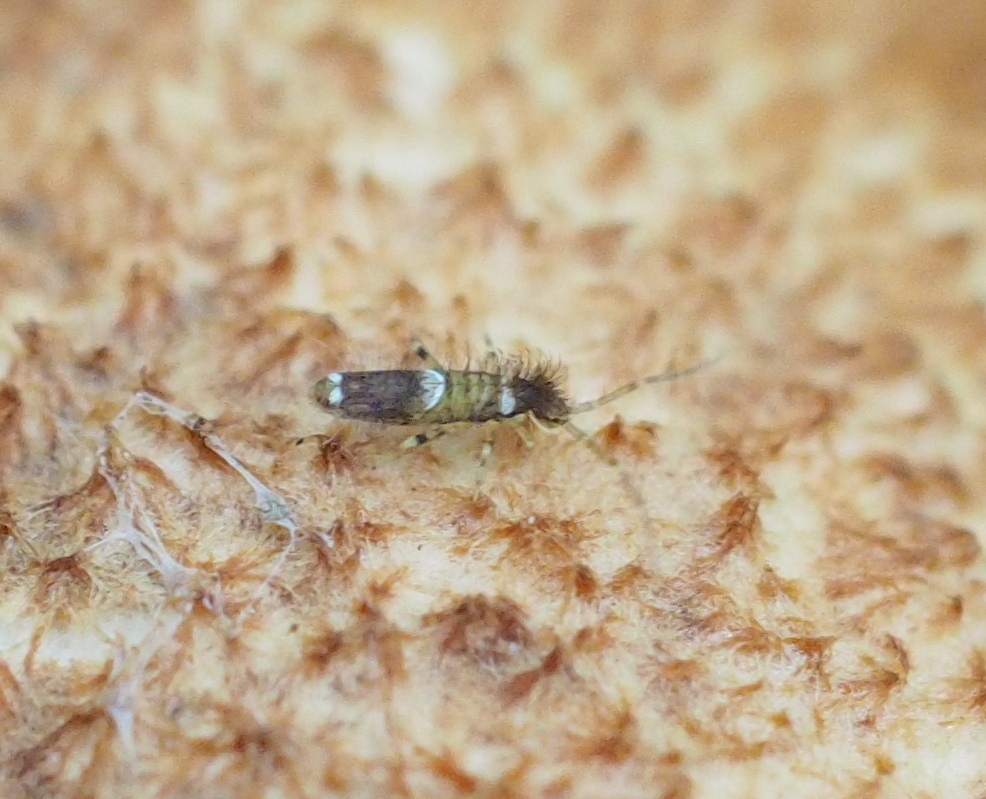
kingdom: Animalia
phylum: Arthropoda
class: Collembola
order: Entomobryomorpha
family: Entomobryidae
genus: Entomobrya
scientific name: Entomobrya dorsalis
